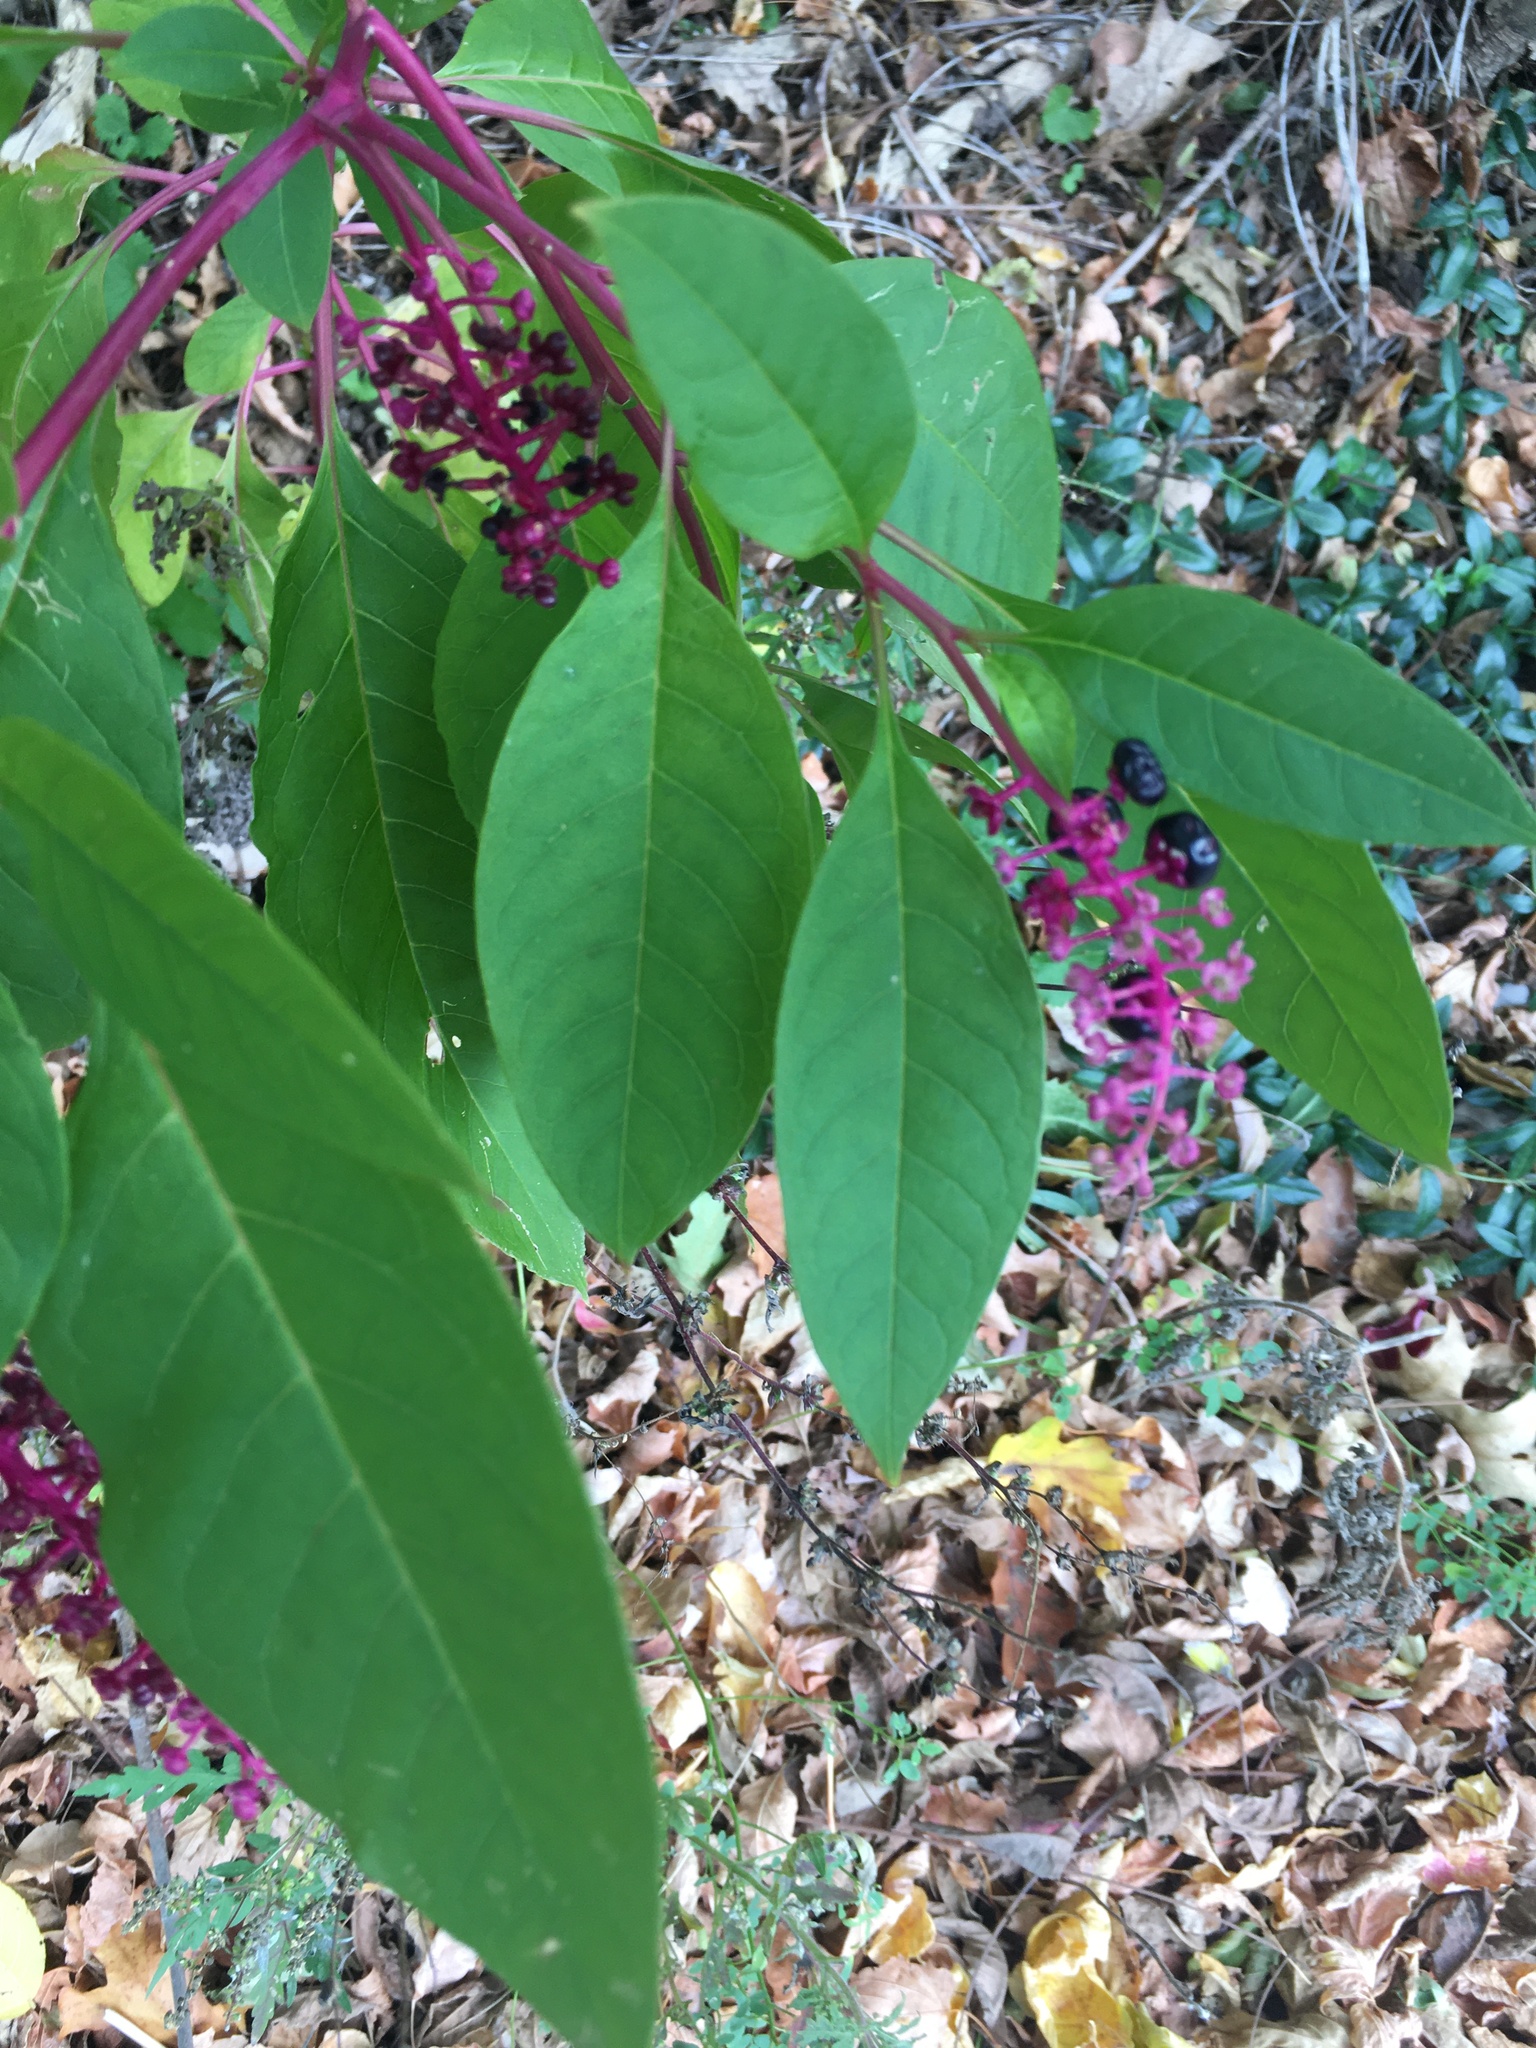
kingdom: Plantae
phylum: Tracheophyta
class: Magnoliopsida
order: Caryophyllales
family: Phytolaccaceae
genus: Phytolacca
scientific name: Phytolacca americana
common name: American pokeweed
